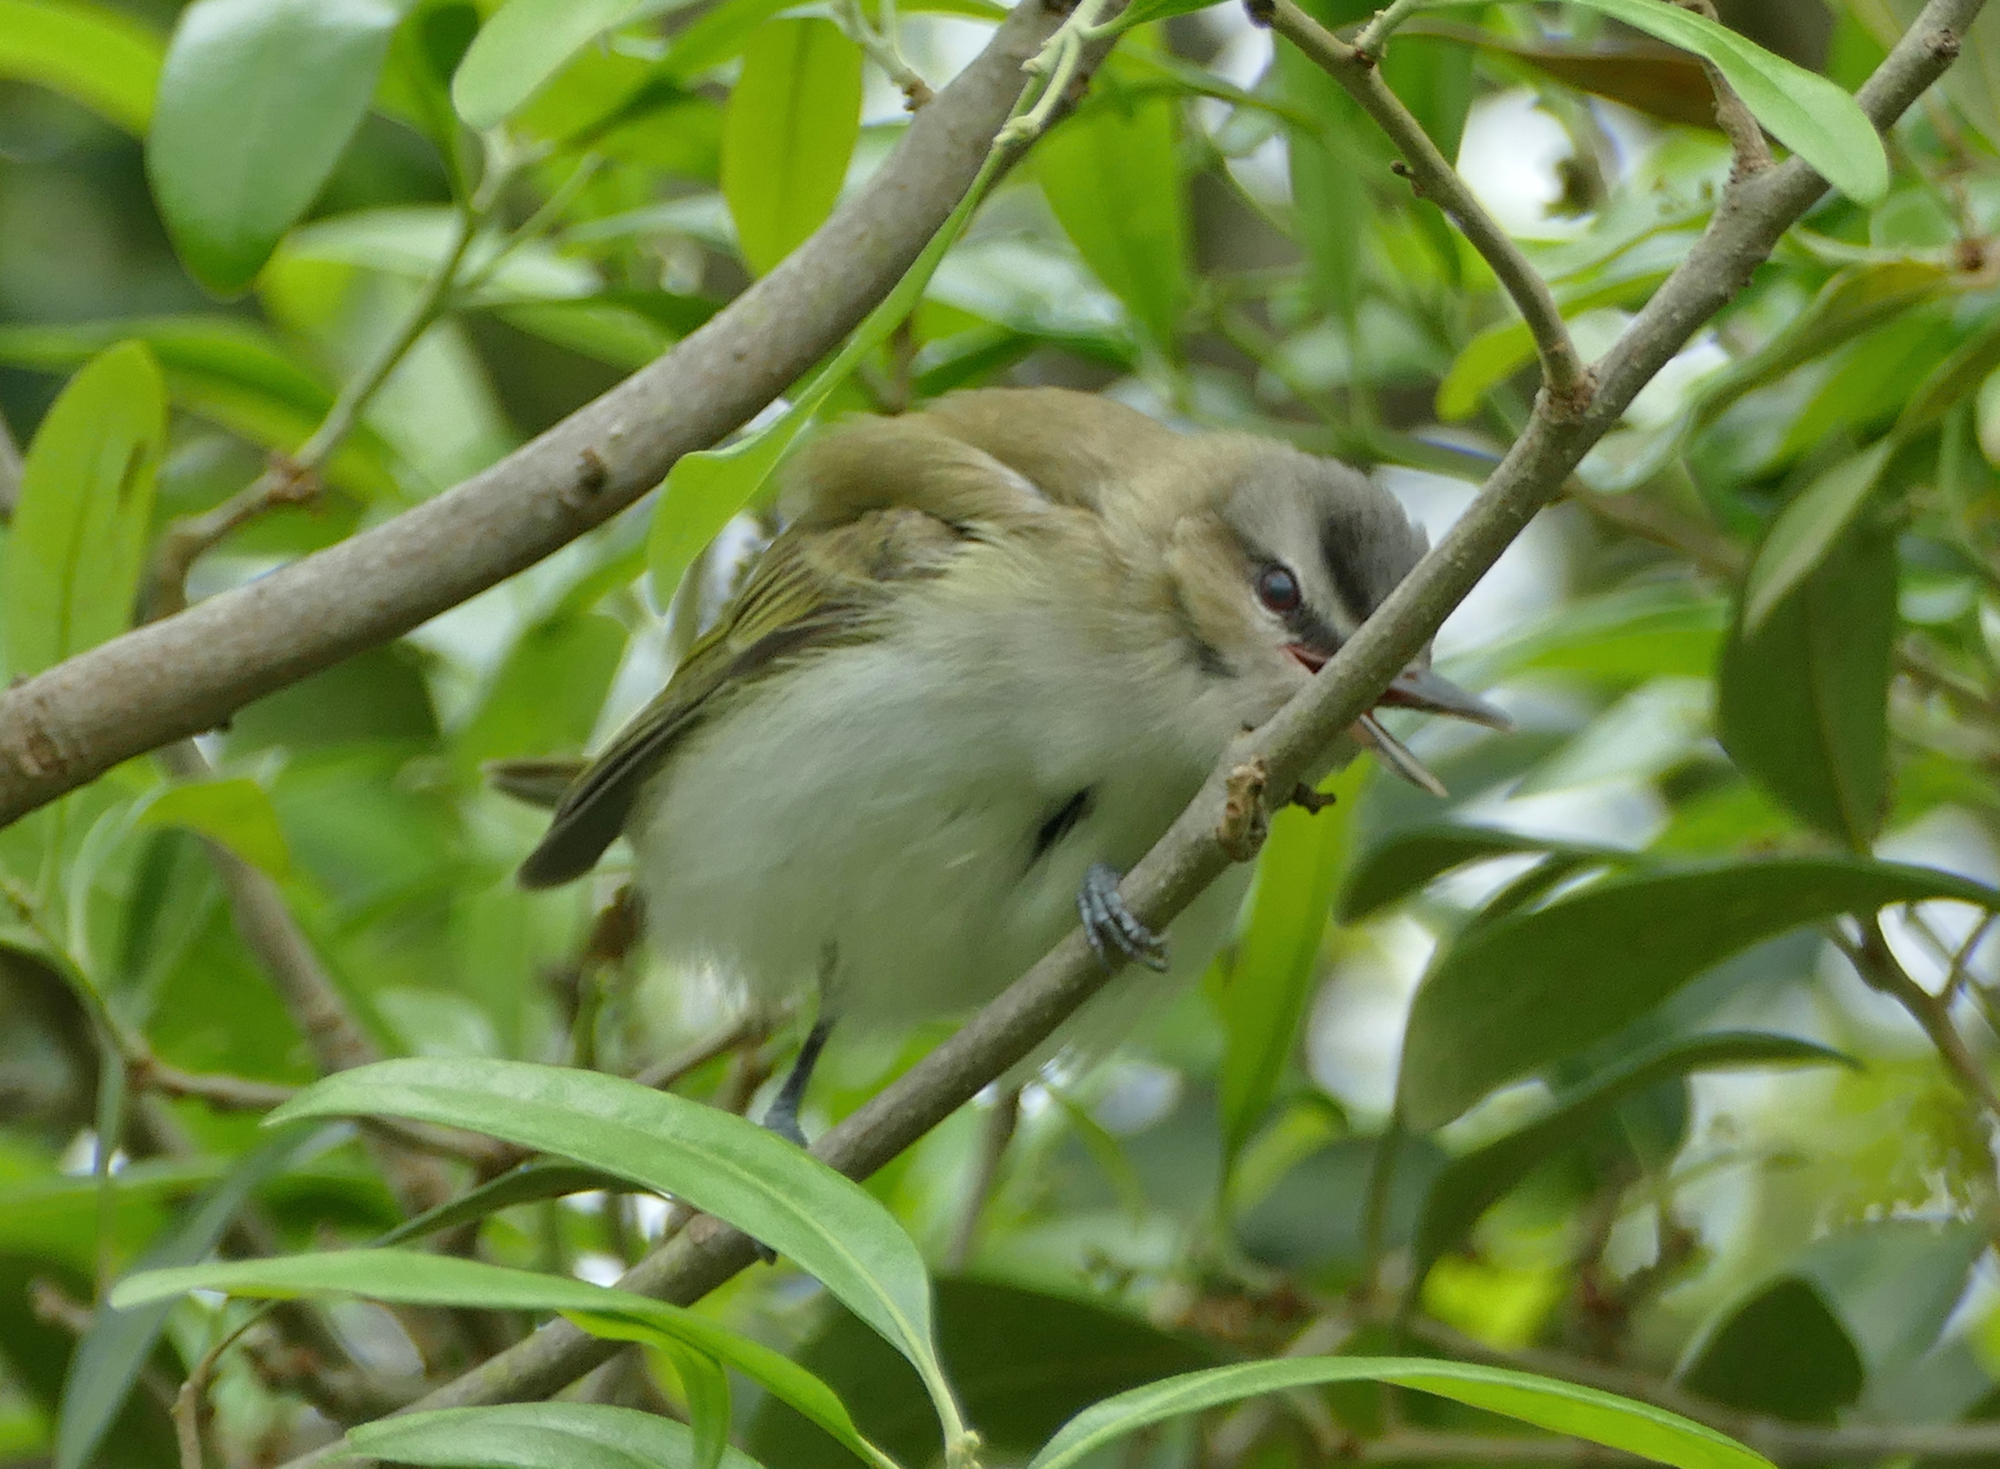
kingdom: Animalia
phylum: Chordata
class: Aves
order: Passeriformes
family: Vireonidae
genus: Vireo
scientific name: Vireo olivaceus
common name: Red-eyed vireo
